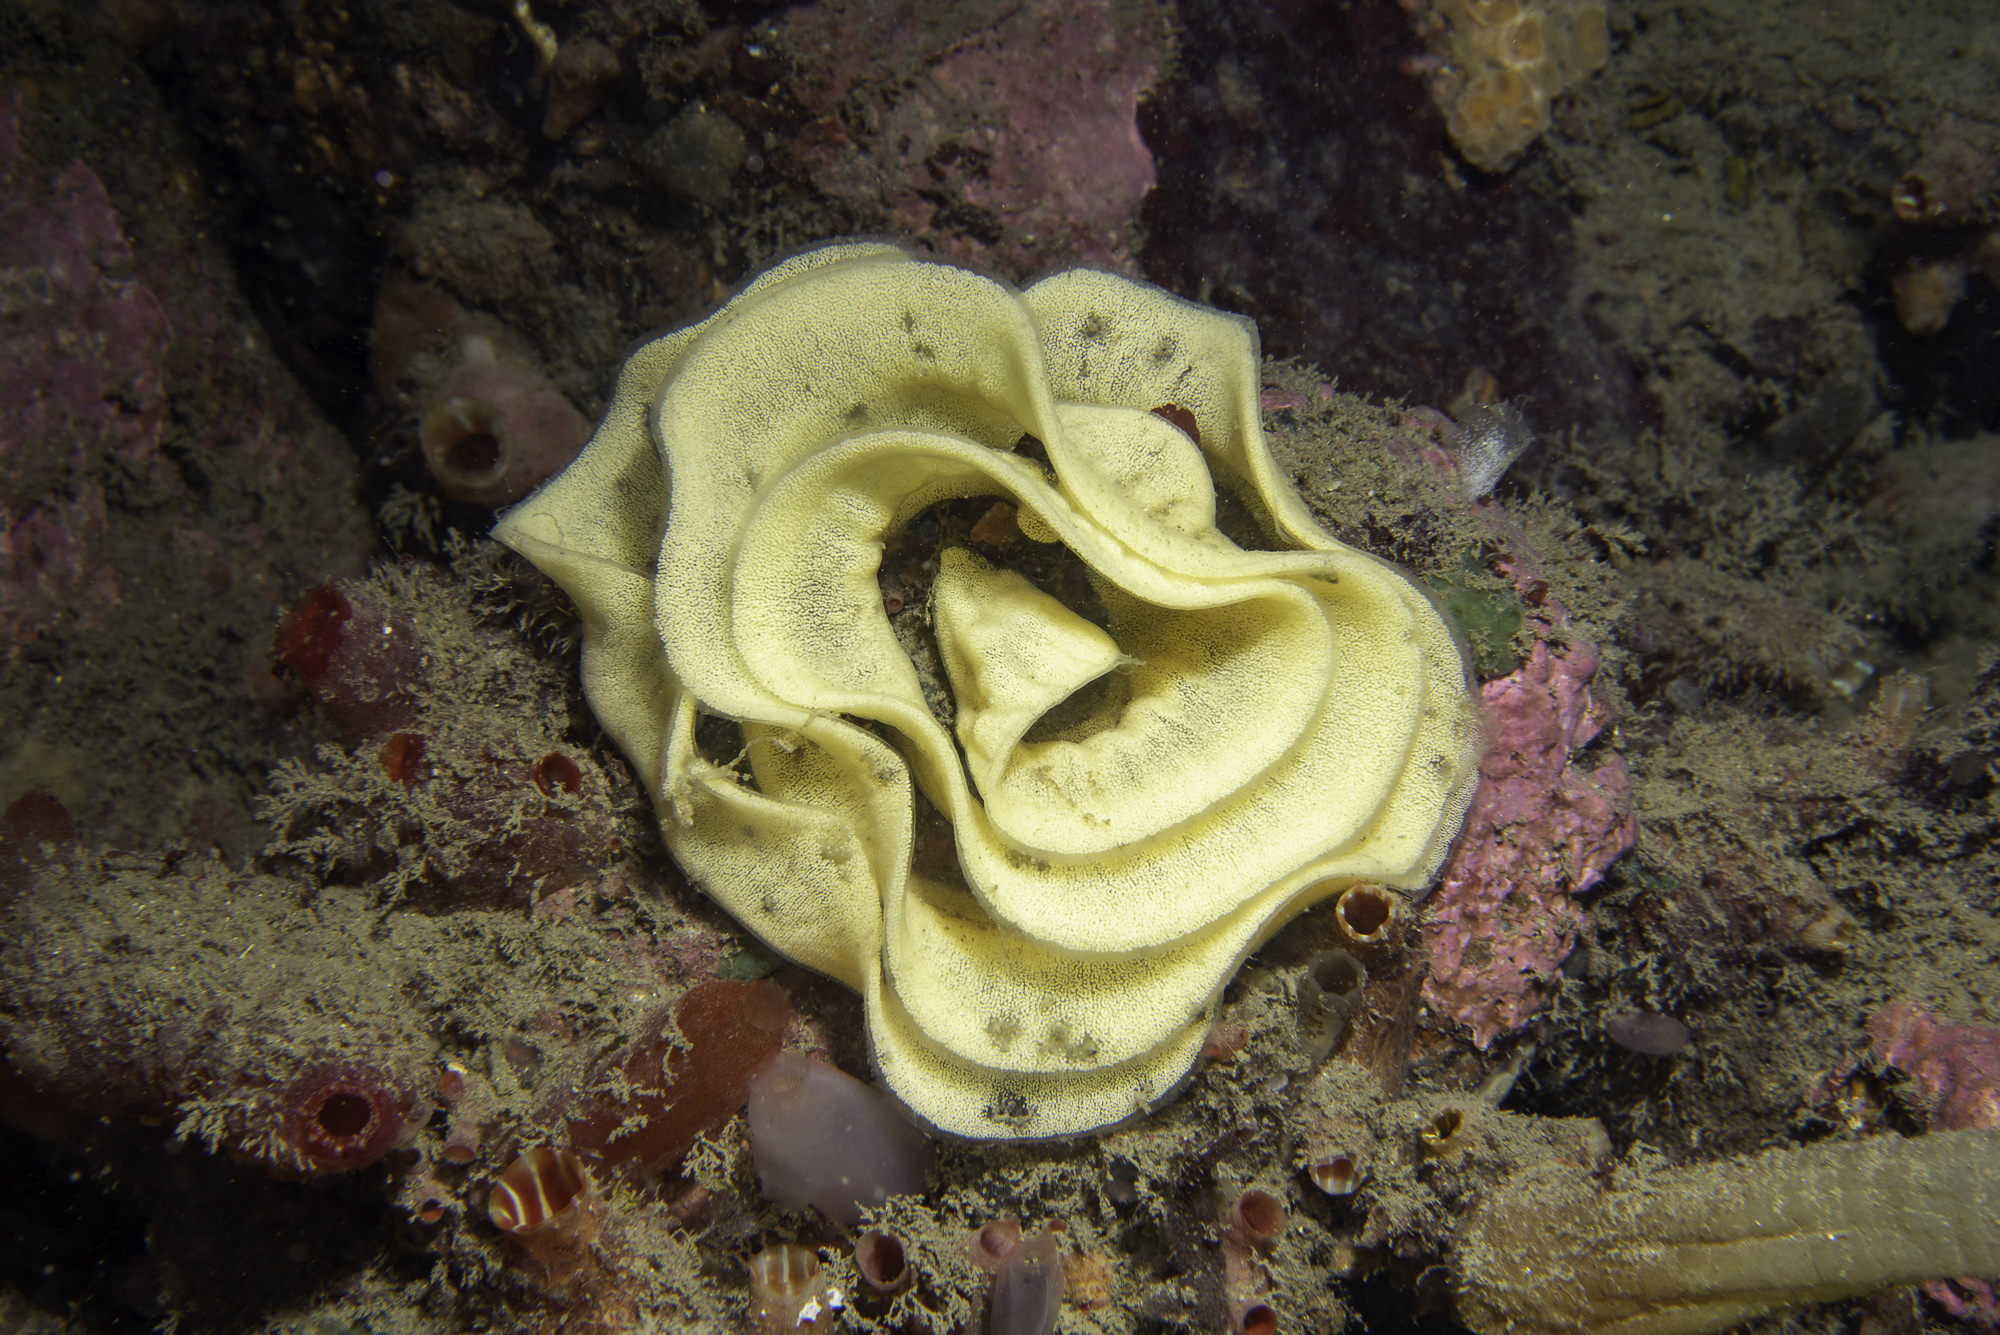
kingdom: Animalia
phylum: Mollusca
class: Gastropoda
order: Nudibranchia
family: Dorididae
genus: Doris
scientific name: Doris pseudoargus
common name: Sea lemon
